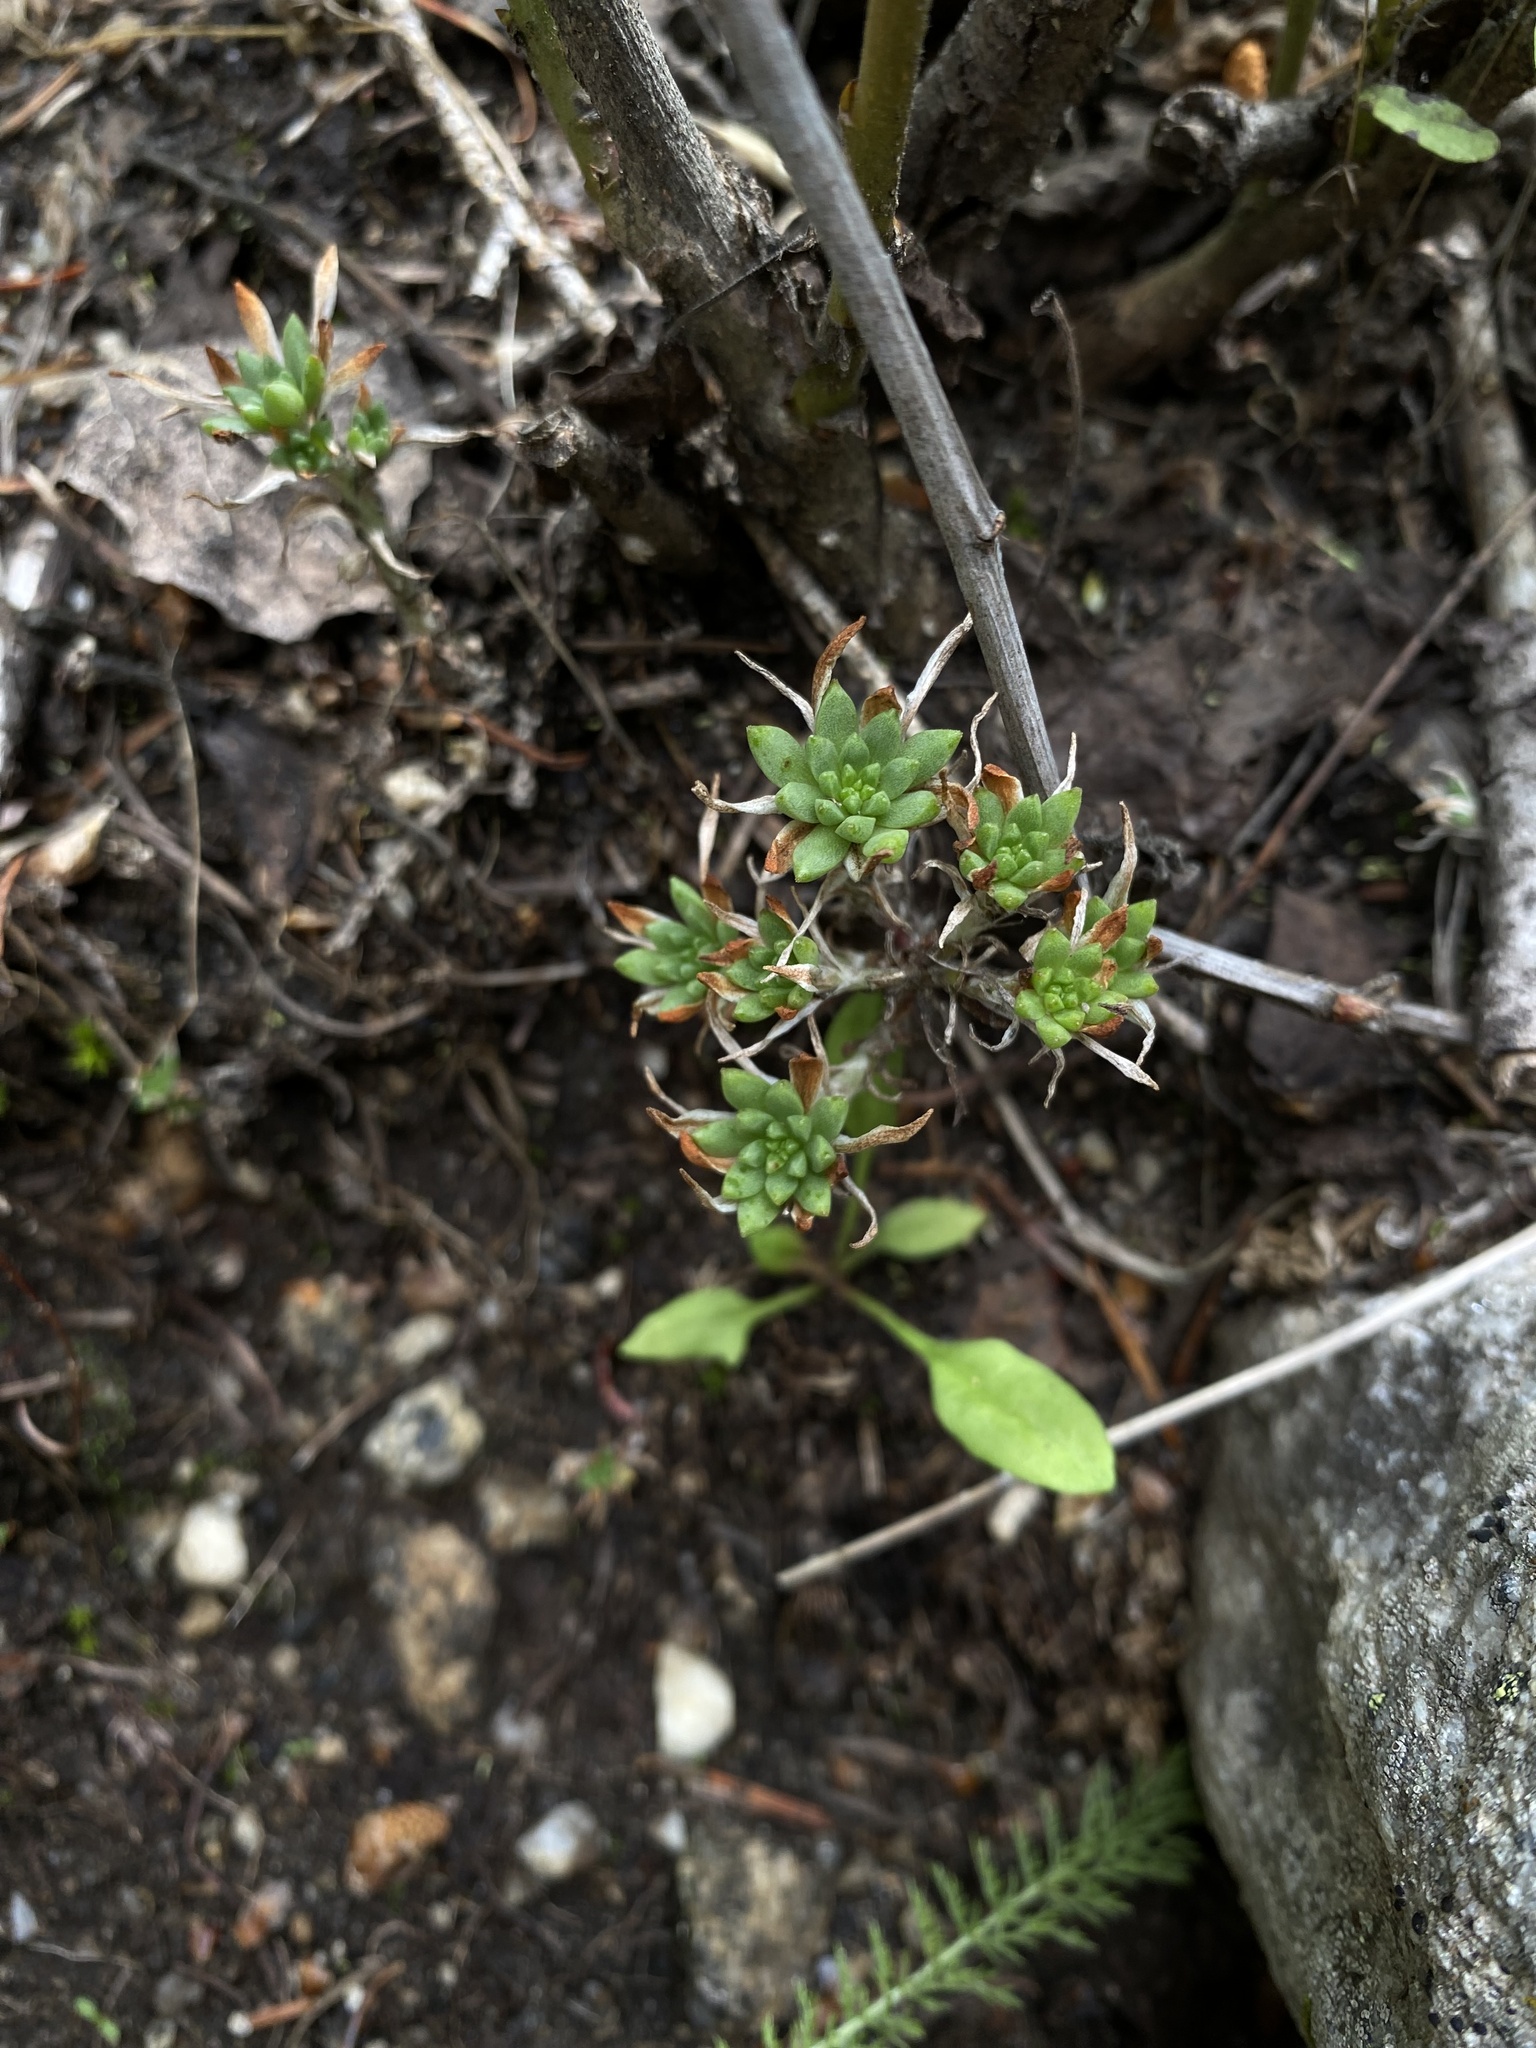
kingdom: Plantae
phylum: Tracheophyta
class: Magnoliopsida
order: Saxifragales
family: Crassulaceae
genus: Sedum
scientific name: Sedum stenopetalum
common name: Narrow-petaled stonecrop
